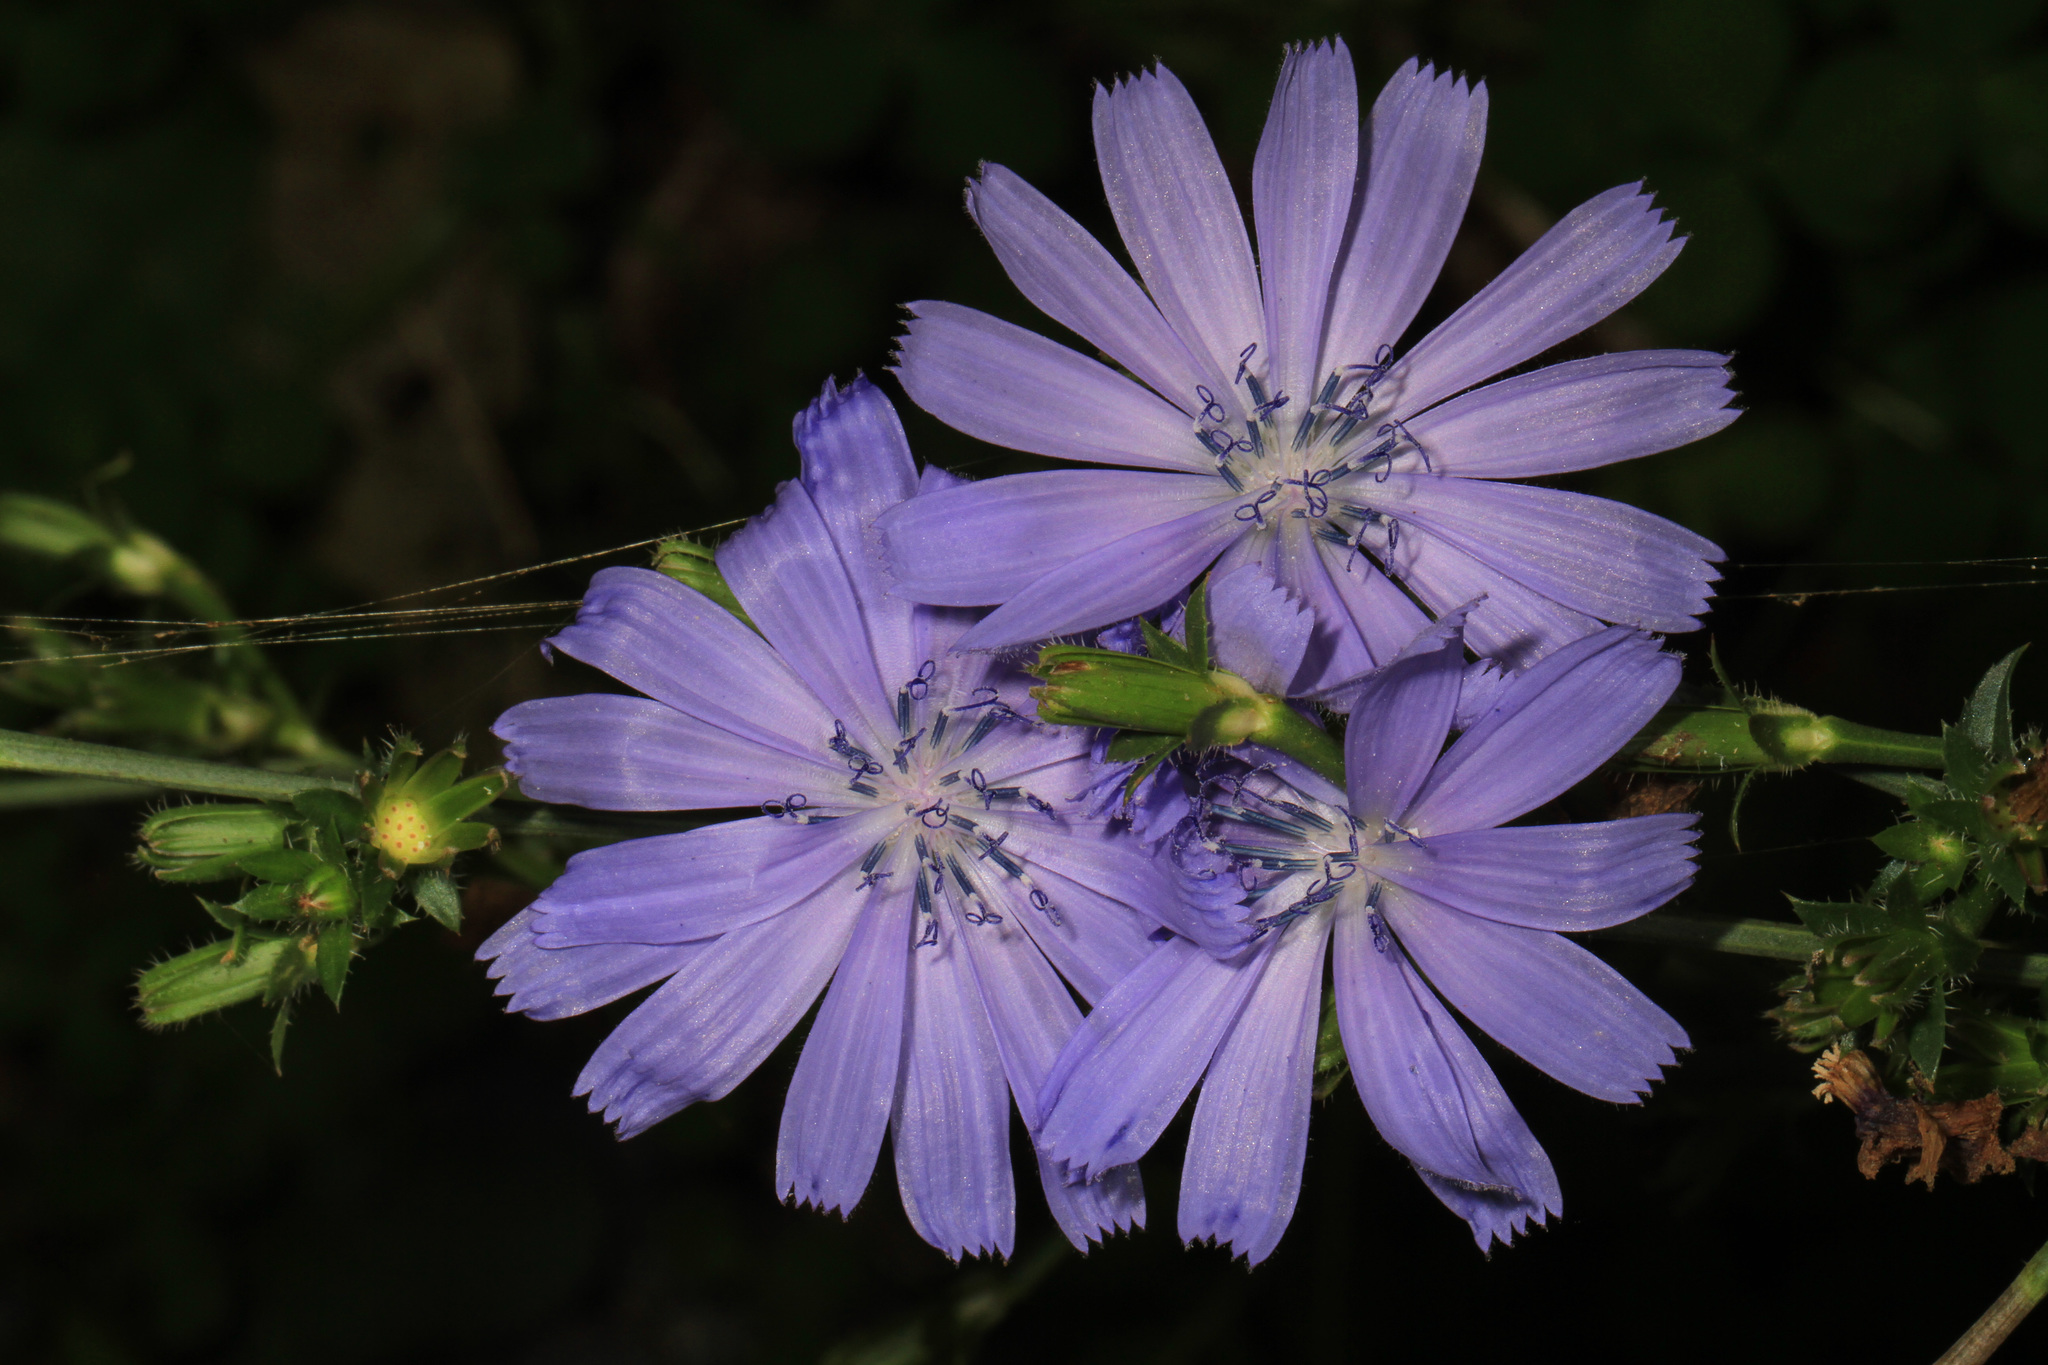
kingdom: Plantae
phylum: Tracheophyta
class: Magnoliopsida
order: Asterales
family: Asteraceae
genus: Cichorium
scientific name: Cichorium intybus
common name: Chicory
